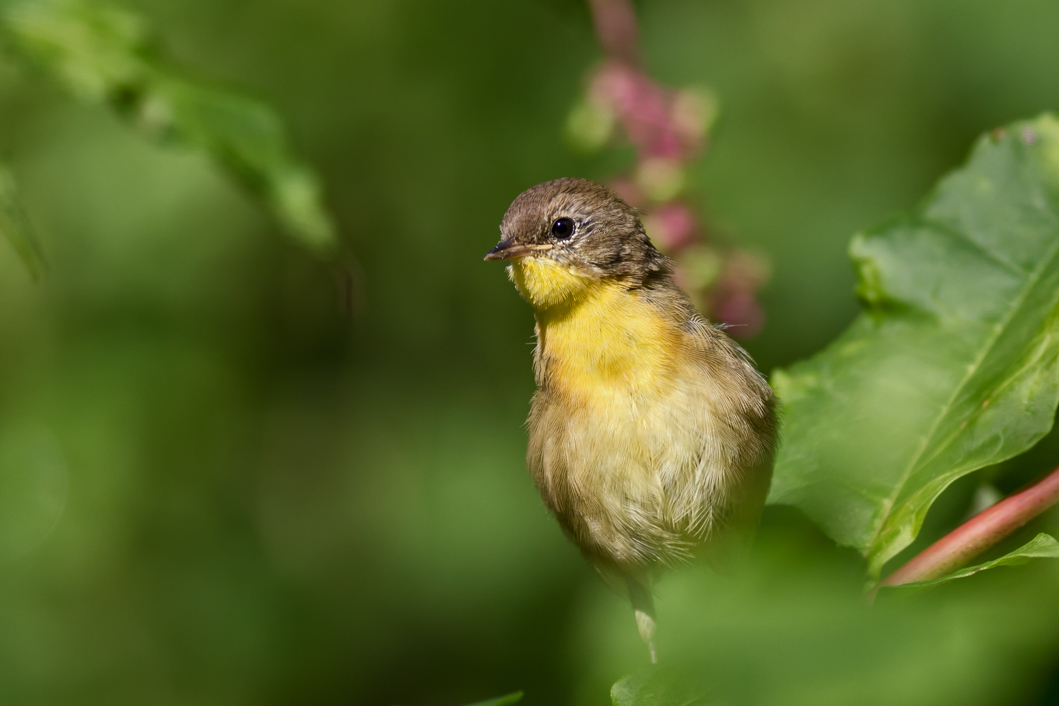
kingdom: Animalia
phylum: Chordata
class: Aves
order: Passeriformes
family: Parulidae
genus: Geothlypis
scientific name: Geothlypis trichas
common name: Common yellowthroat
